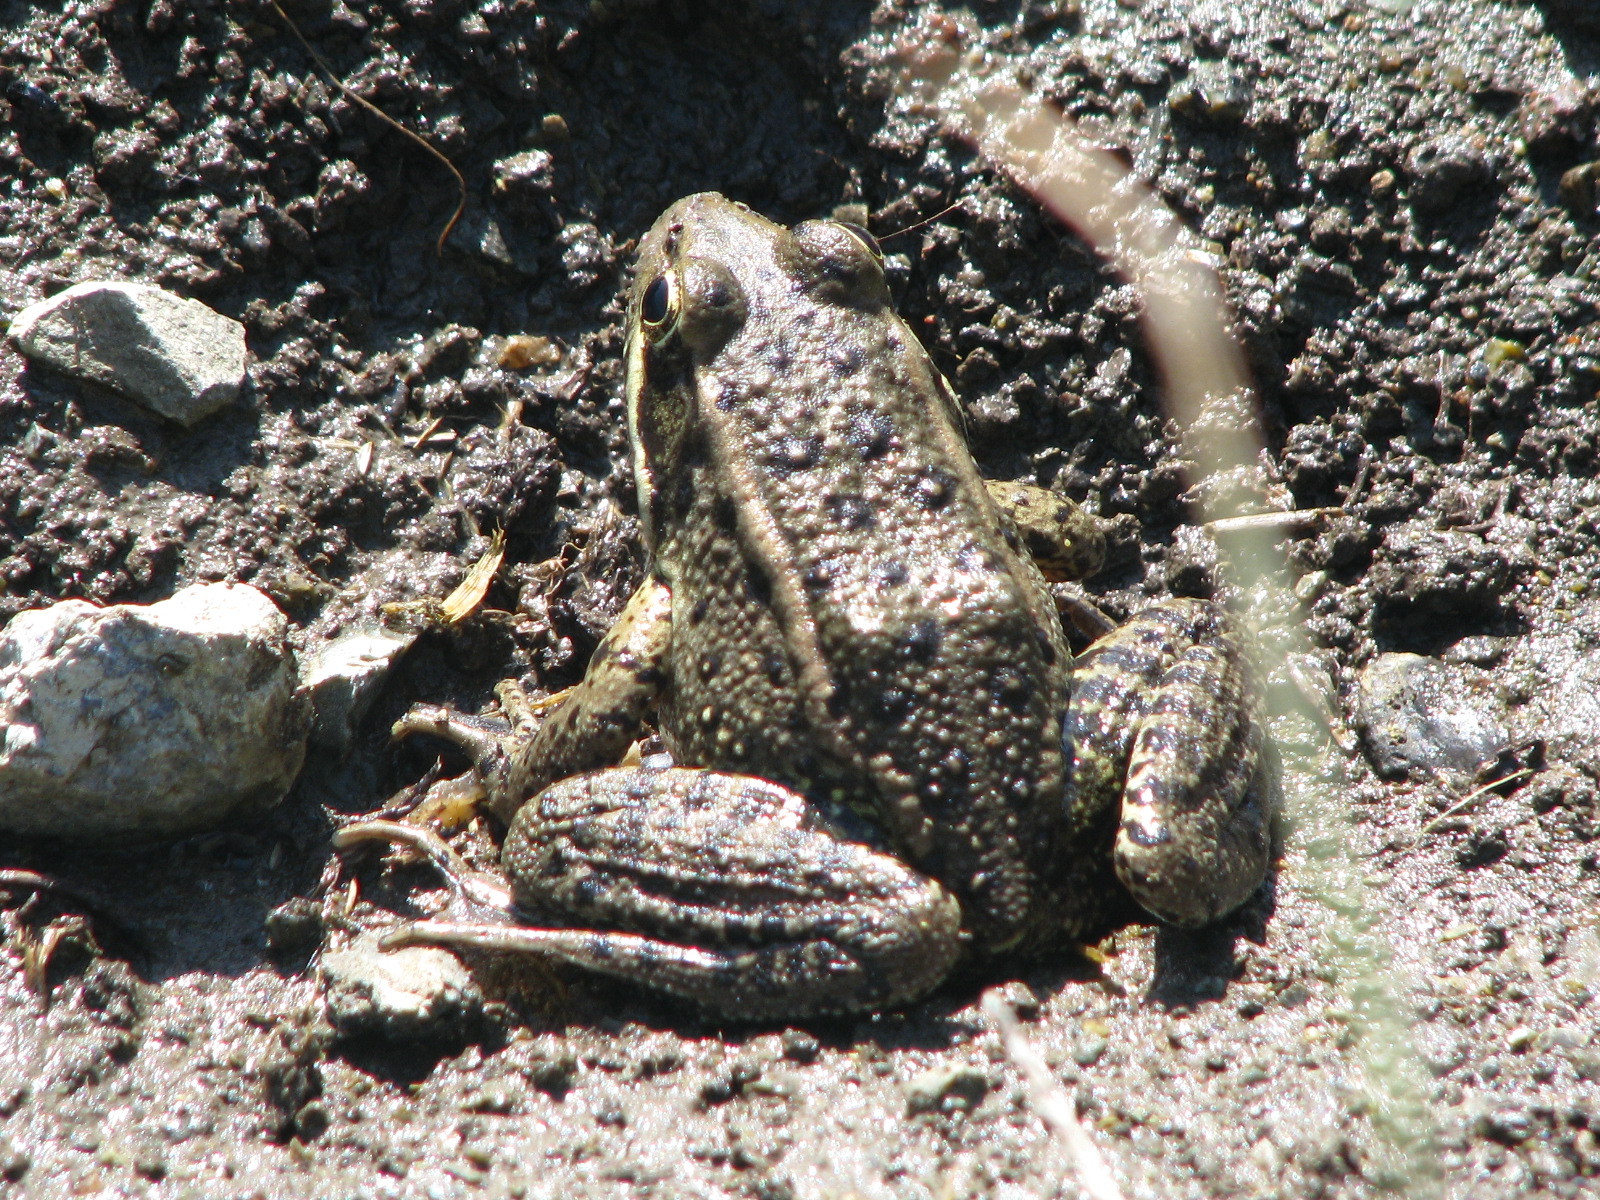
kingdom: Animalia
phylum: Chordata
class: Amphibia
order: Anura
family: Ranidae
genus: Rana
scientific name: Rana draytonii
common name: California red-legged frog
